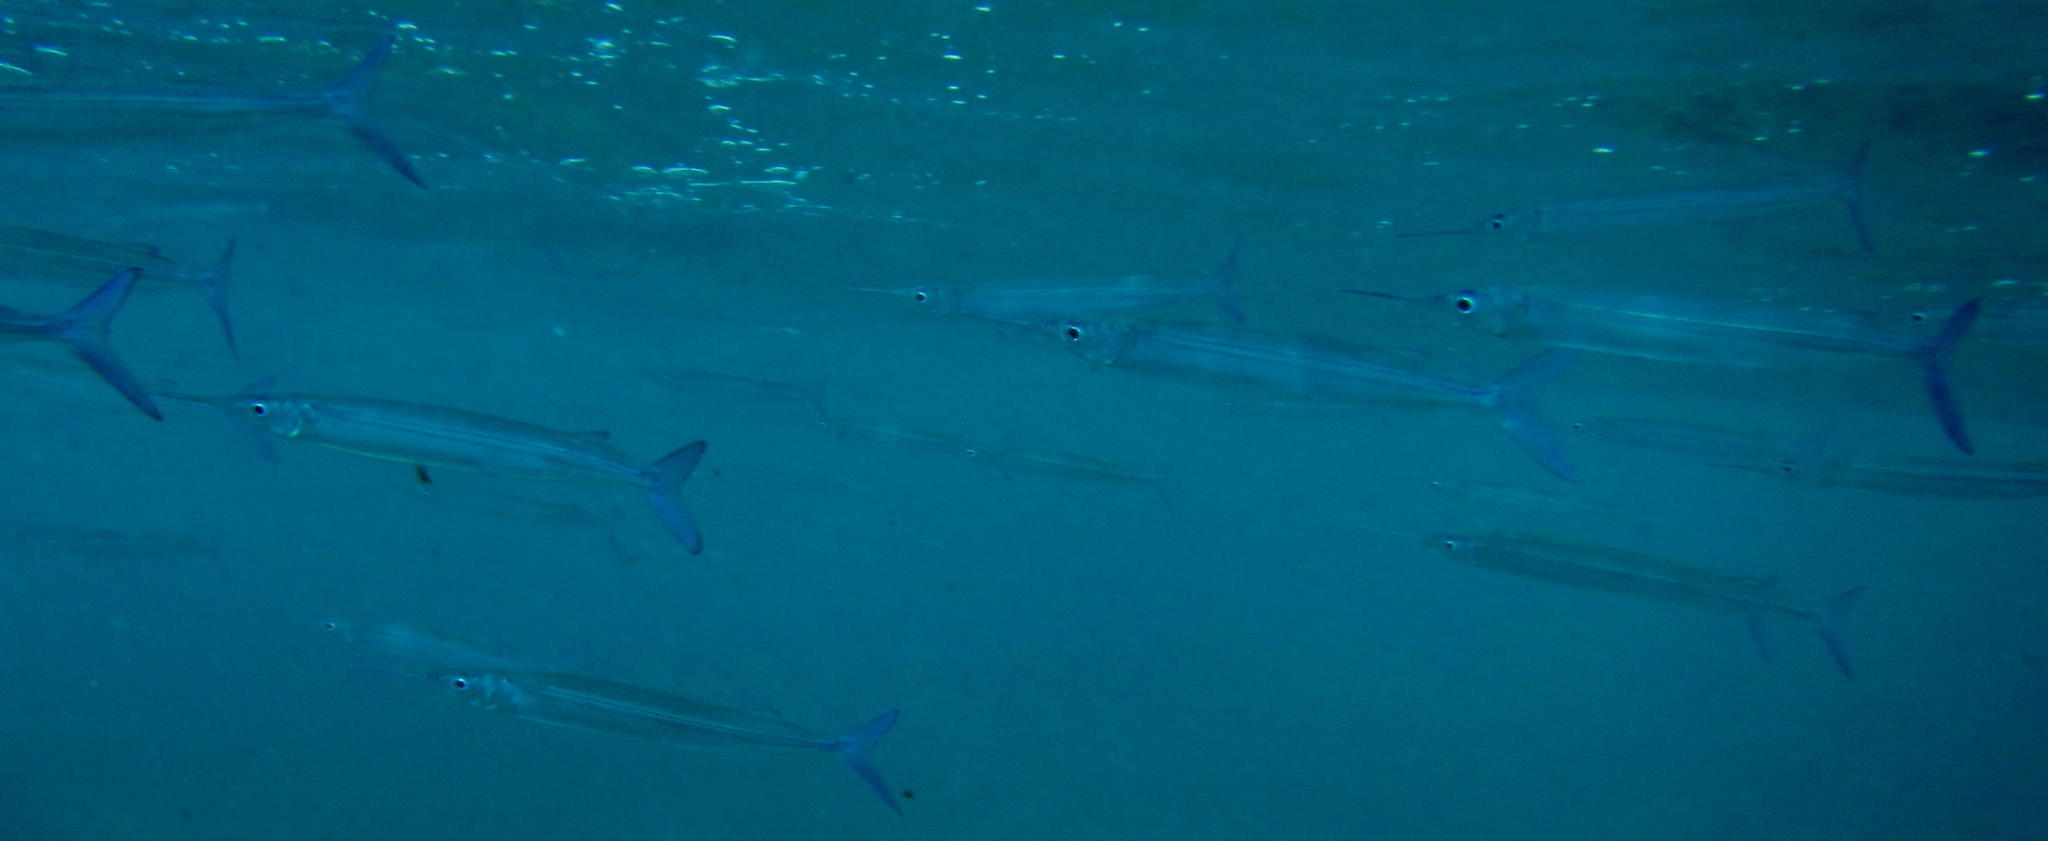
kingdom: Animalia
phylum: Chordata
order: Beloniformes
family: Hemiramphidae
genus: Hyporhamphus
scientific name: Hyporhamphus affinis
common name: Tropical halfbeak
